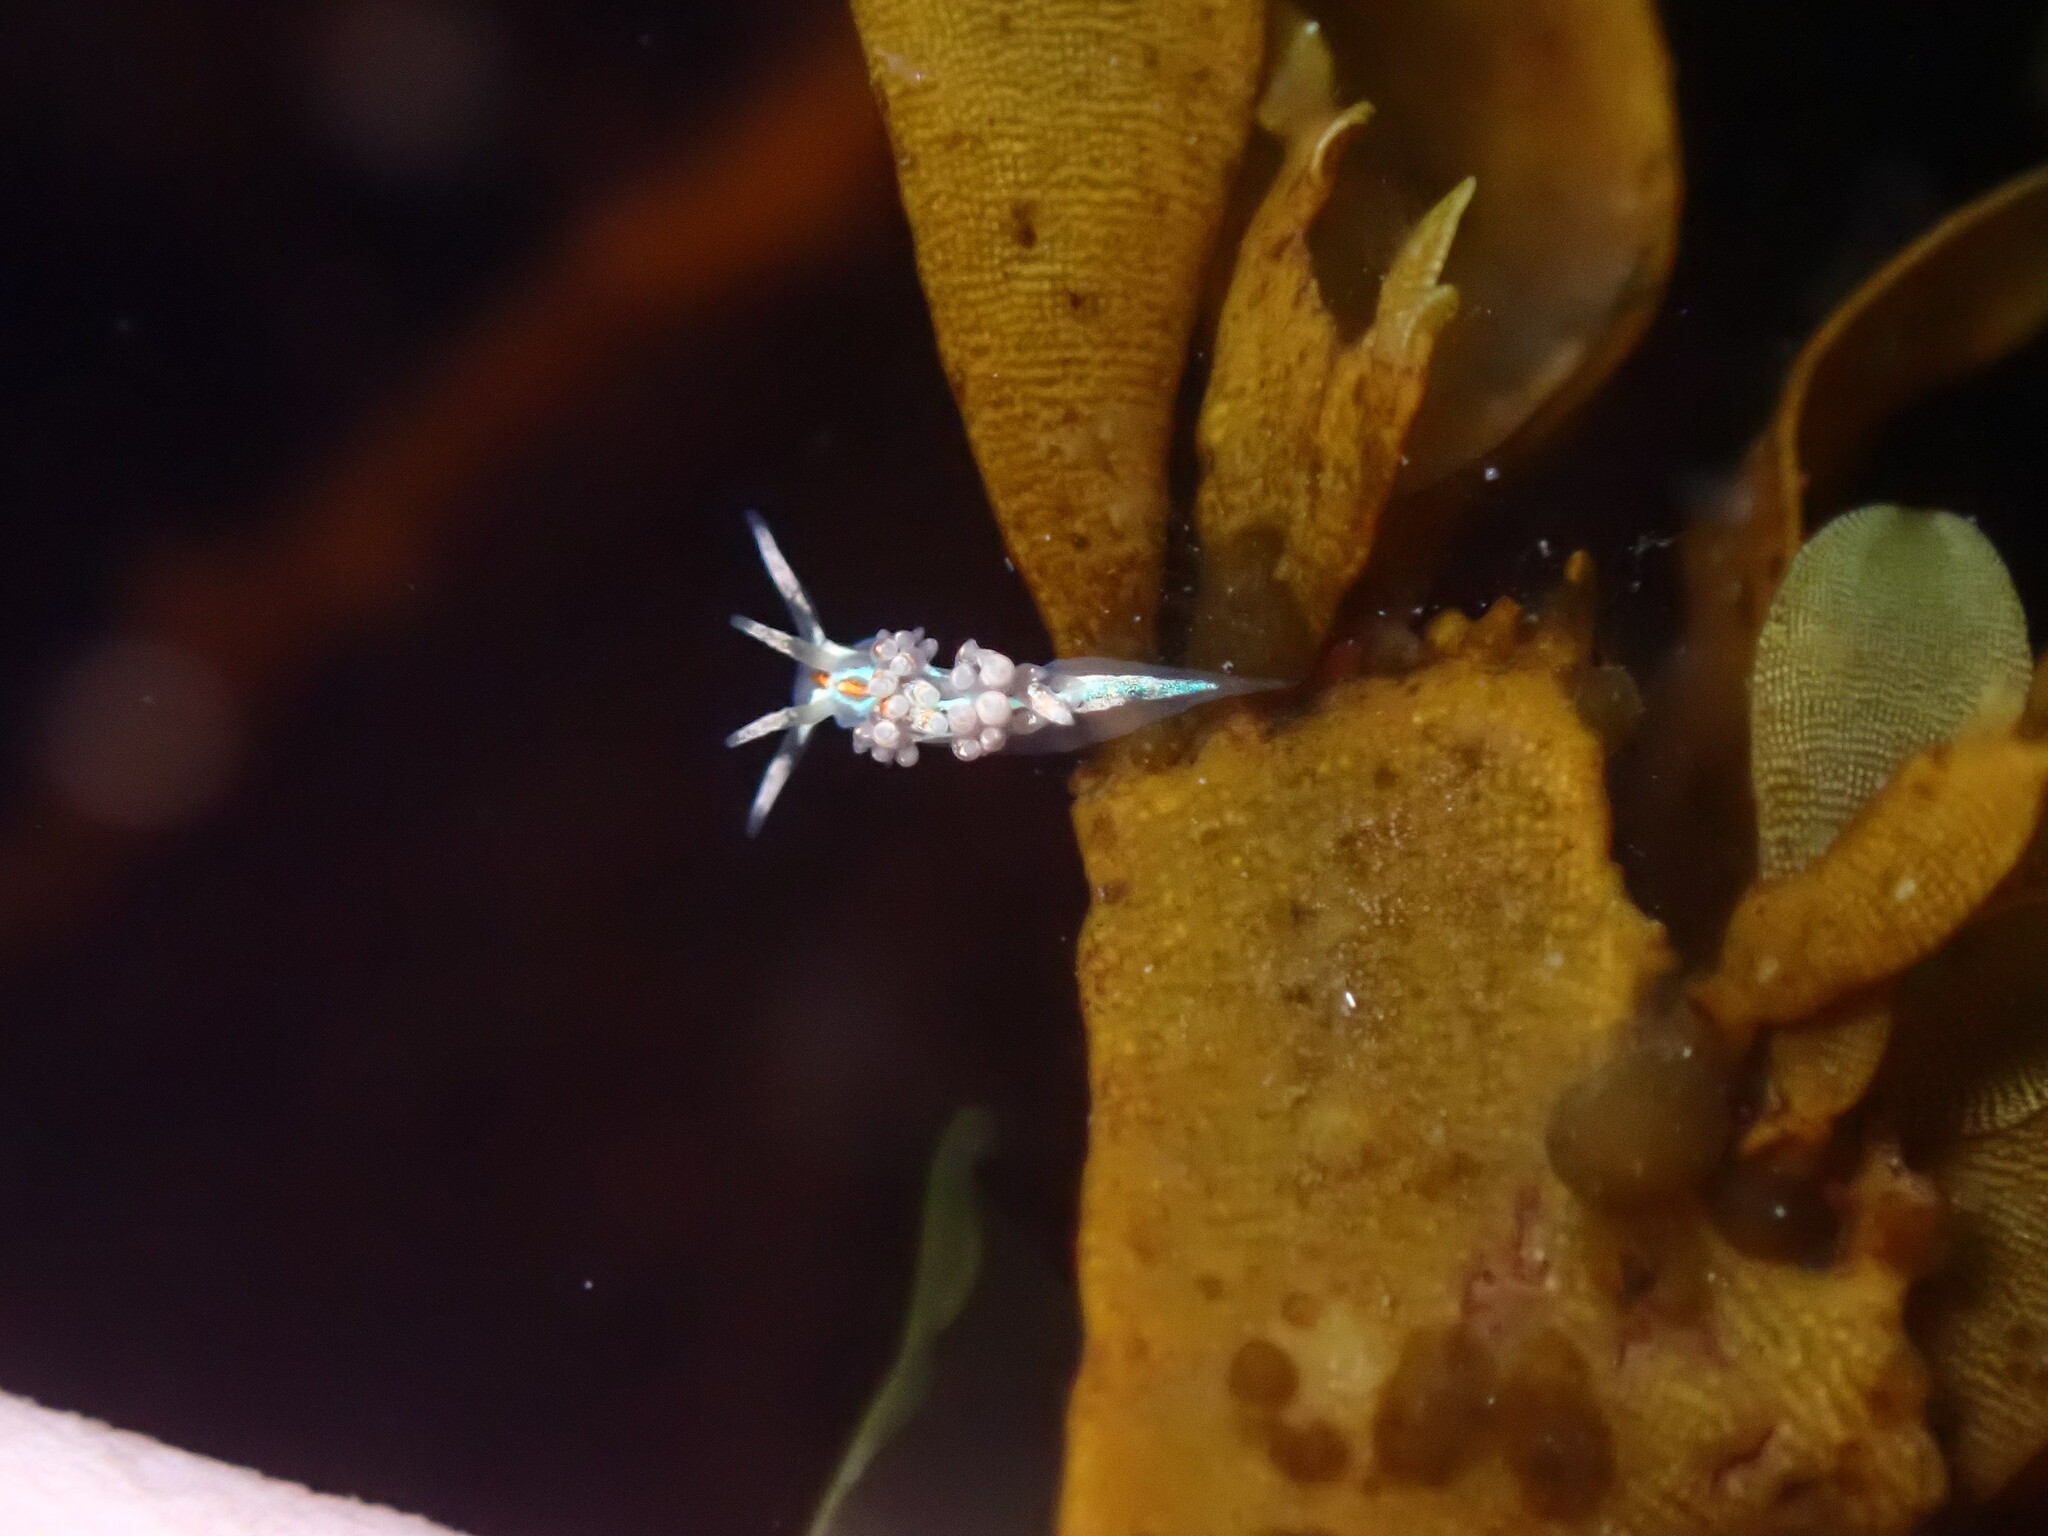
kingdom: Animalia
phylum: Mollusca
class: Gastropoda
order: Nudibranchia
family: Myrrhinidae
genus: Hermissenda
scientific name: Hermissenda opalescens
